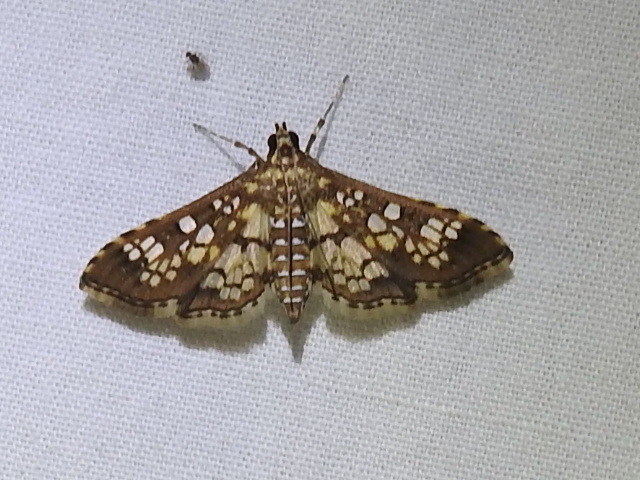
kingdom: Animalia
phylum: Arthropoda
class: Insecta
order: Lepidoptera
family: Crambidae
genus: Samea
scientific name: Samea ecclesialis
